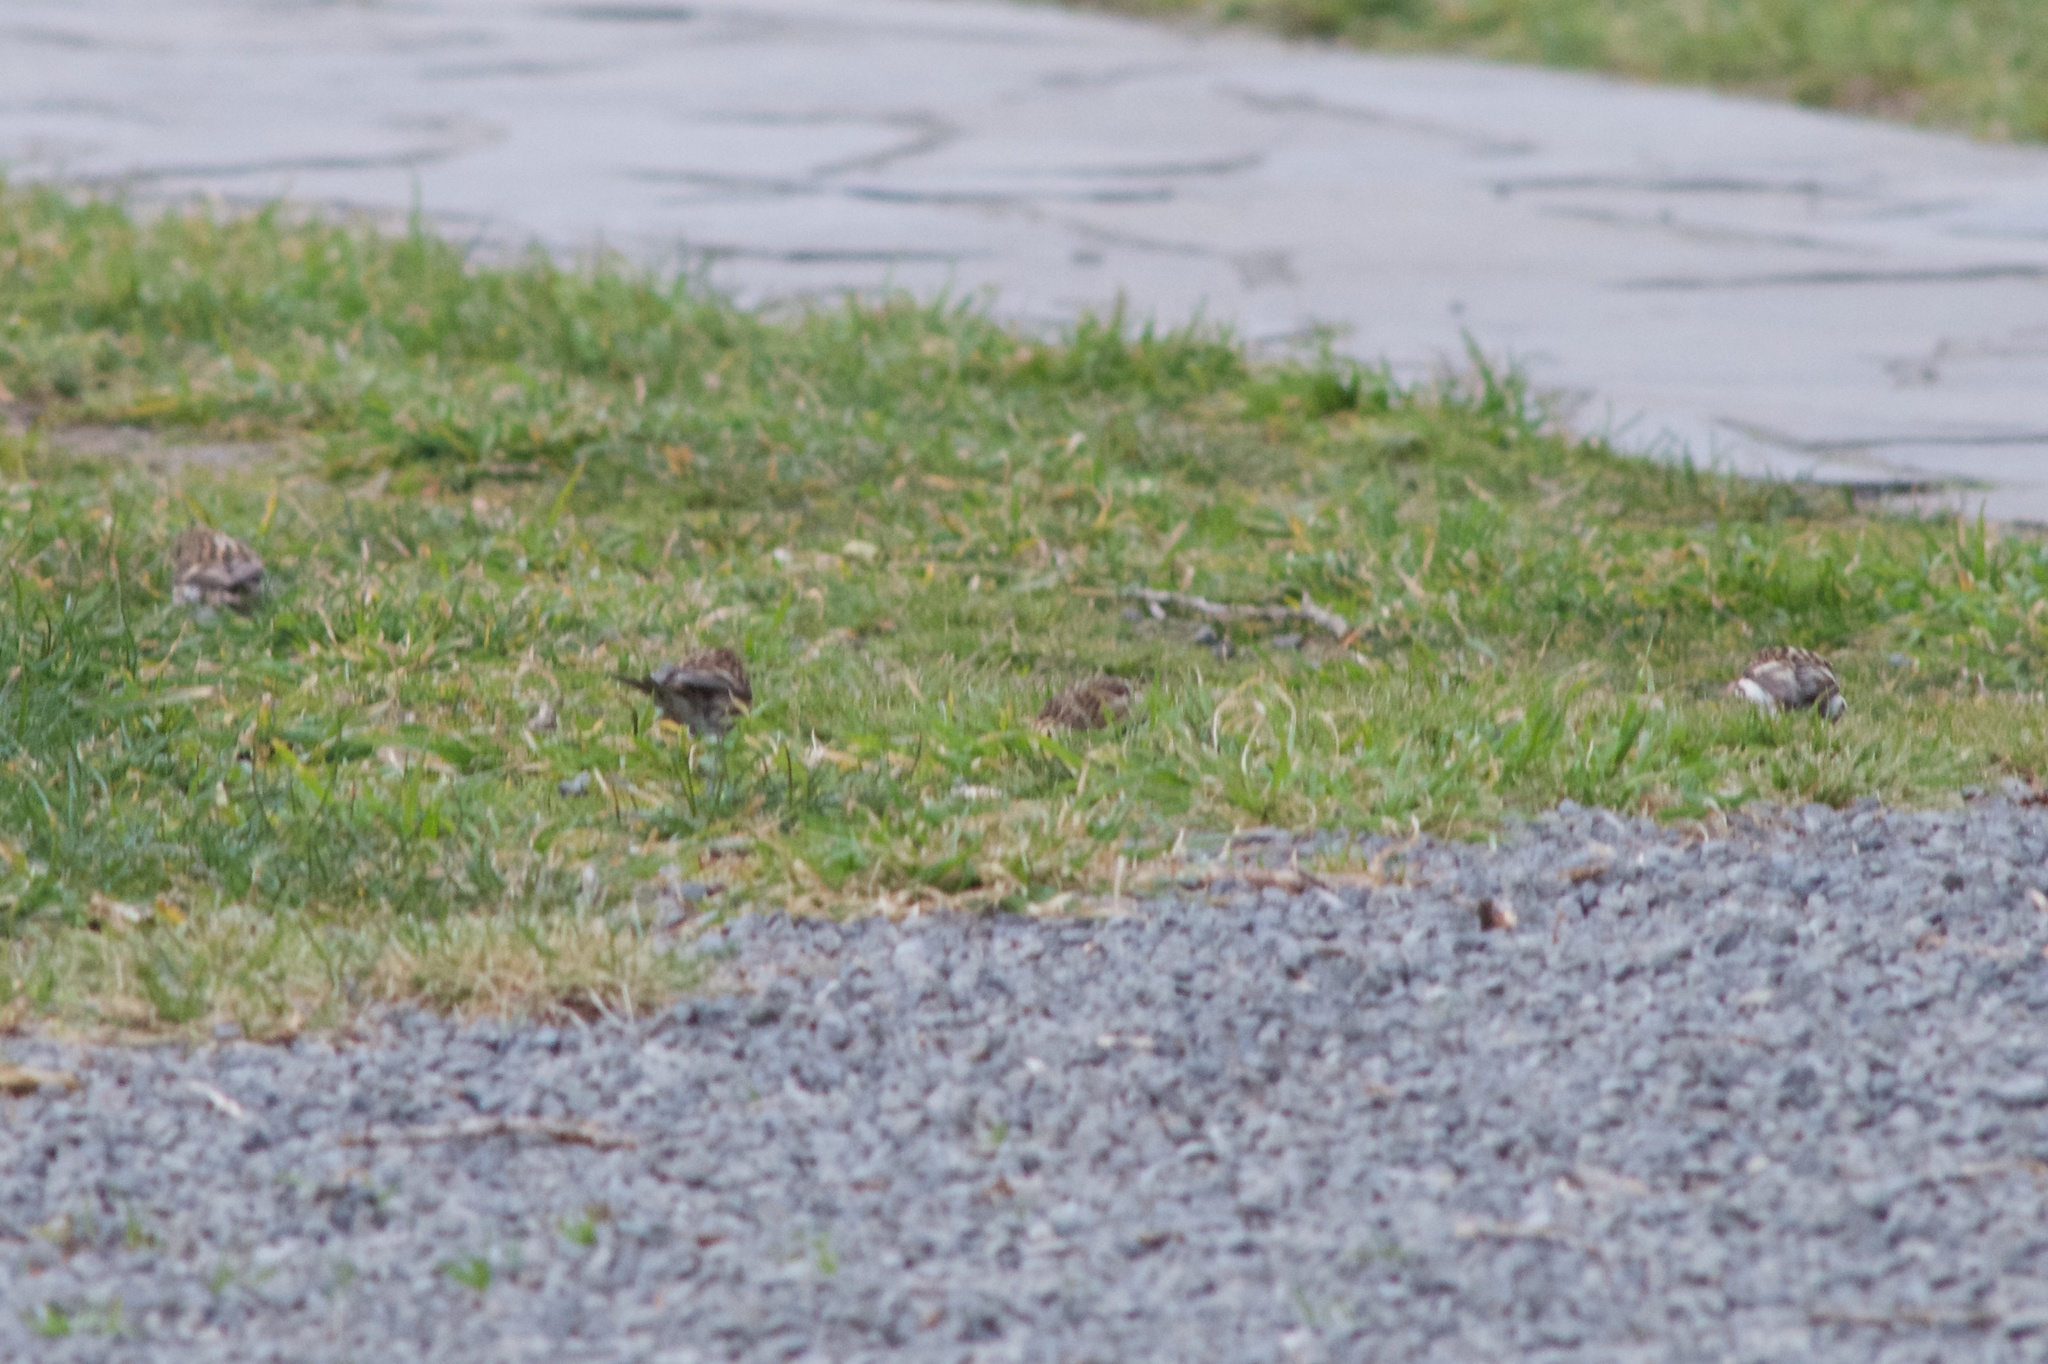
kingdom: Animalia
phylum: Chordata
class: Aves
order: Passeriformes
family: Fringillidae
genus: Acanthis
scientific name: Acanthis flammea
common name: Common redpoll
